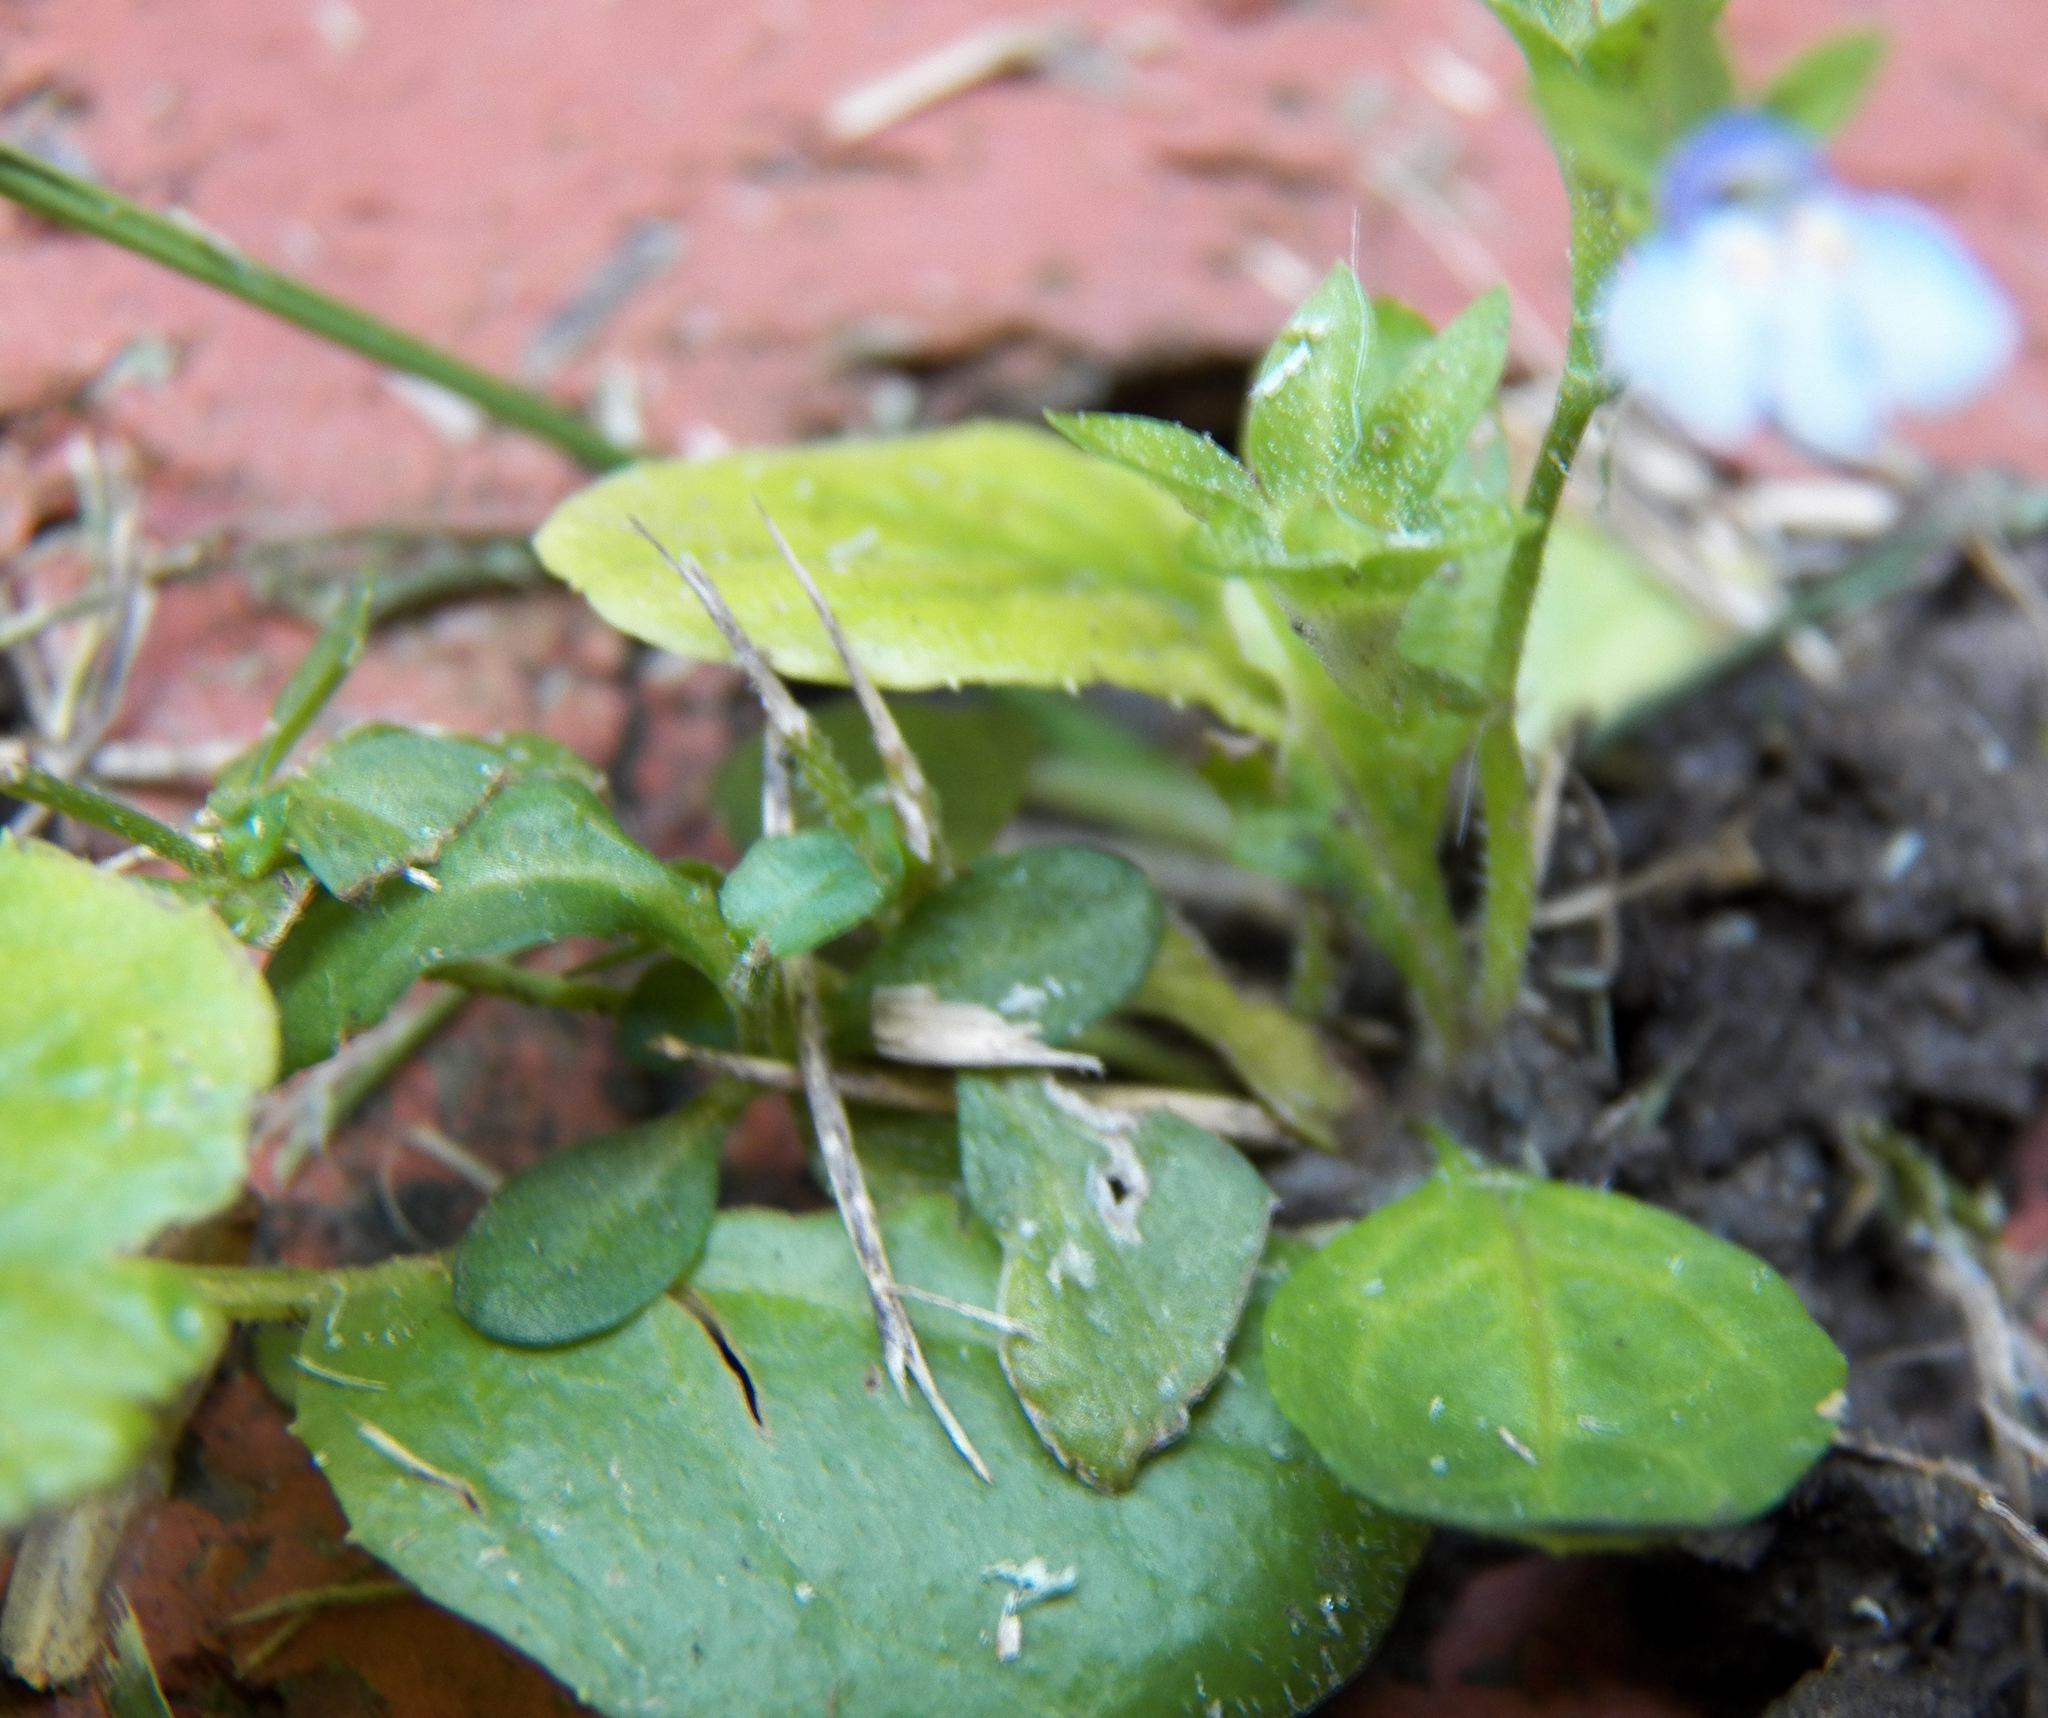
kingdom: Plantae
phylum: Tracheophyta
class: Magnoliopsida
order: Lamiales
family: Mazaceae
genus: Mazus
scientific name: Mazus pumilus
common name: Japanese mazus
